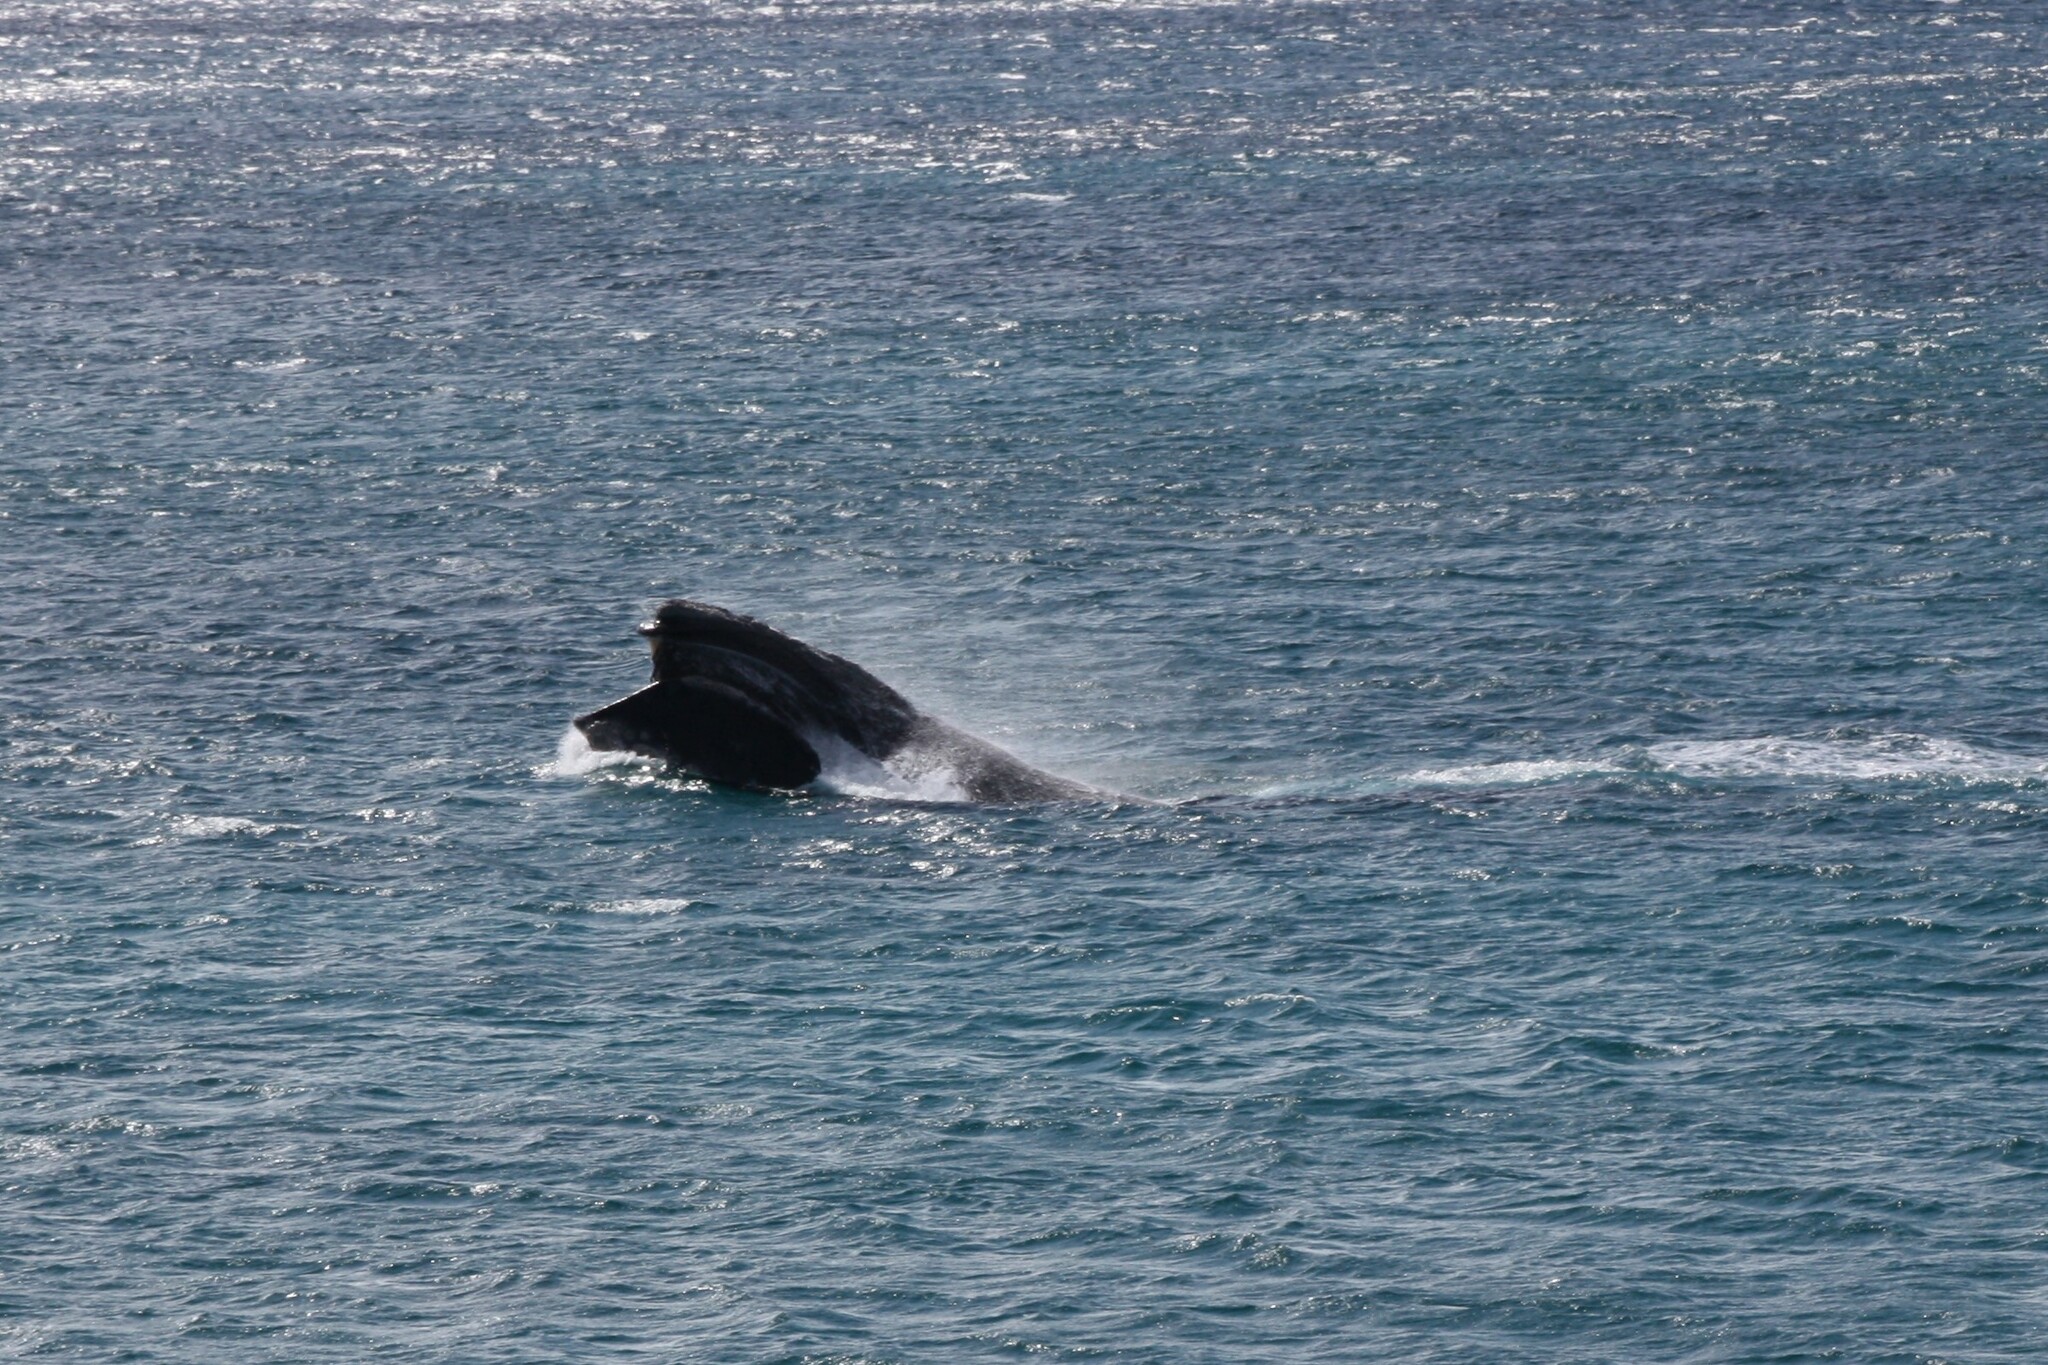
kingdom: Animalia
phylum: Chordata
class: Mammalia
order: Cetacea
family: Balaenidae
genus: Eubalaena
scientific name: Eubalaena australis
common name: Southern right whale
